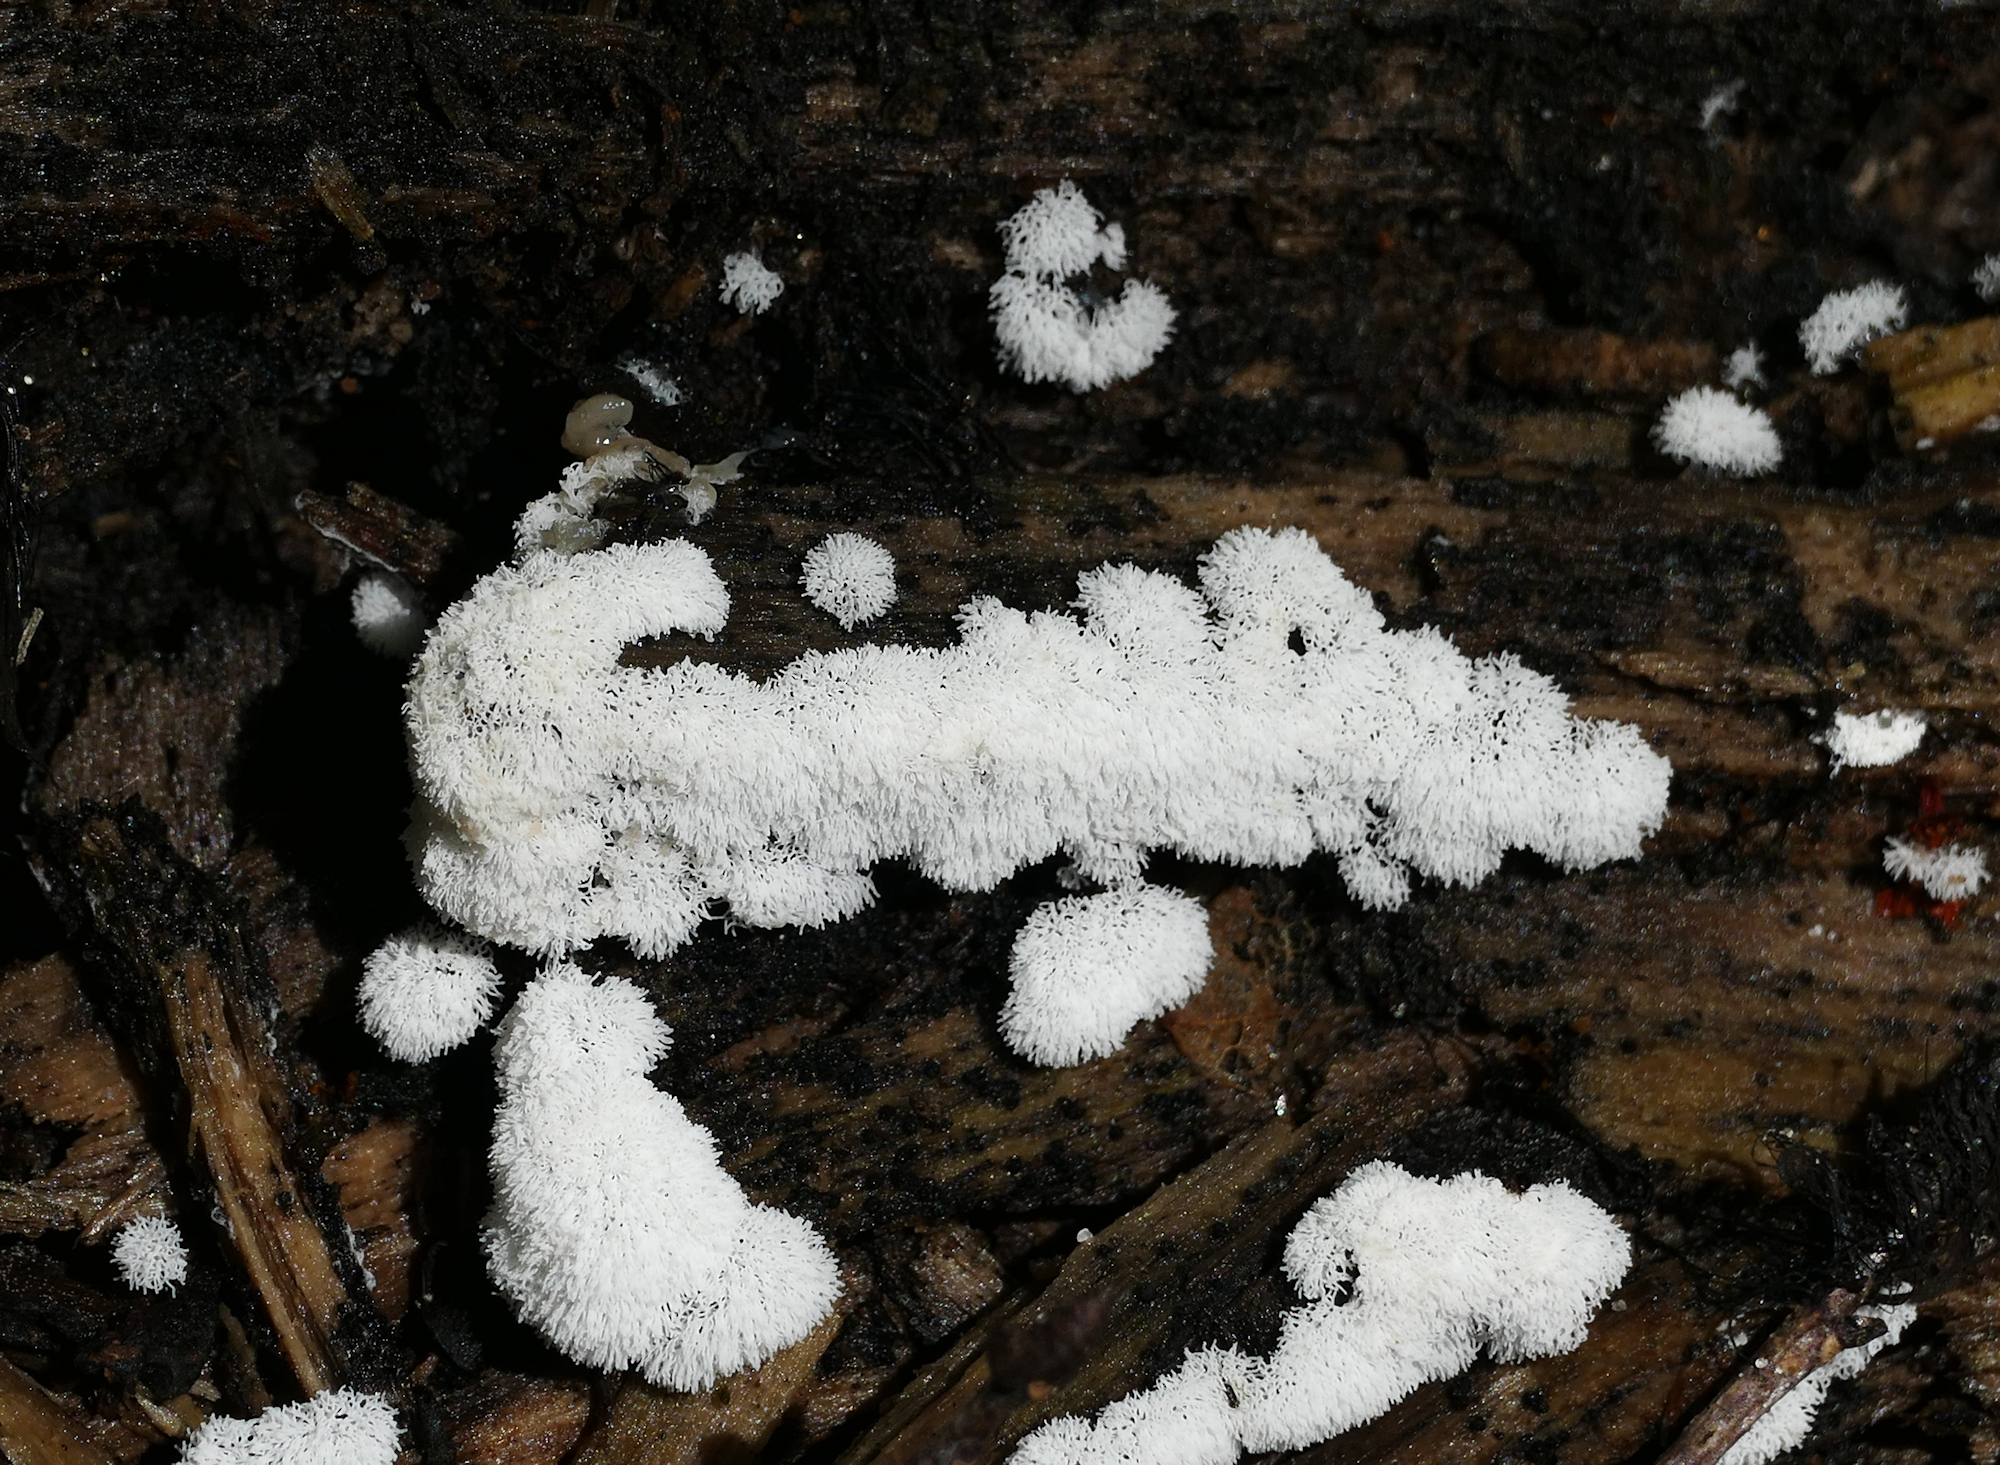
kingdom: Protozoa
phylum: Mycetozoa
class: Protosteliomycetes
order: Ceratiomyxales
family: Ceratiomyxaceae
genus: Ceratiomyxa
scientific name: Ceratiomyxa fruticulosa
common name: Honeycomb coral slime mold
